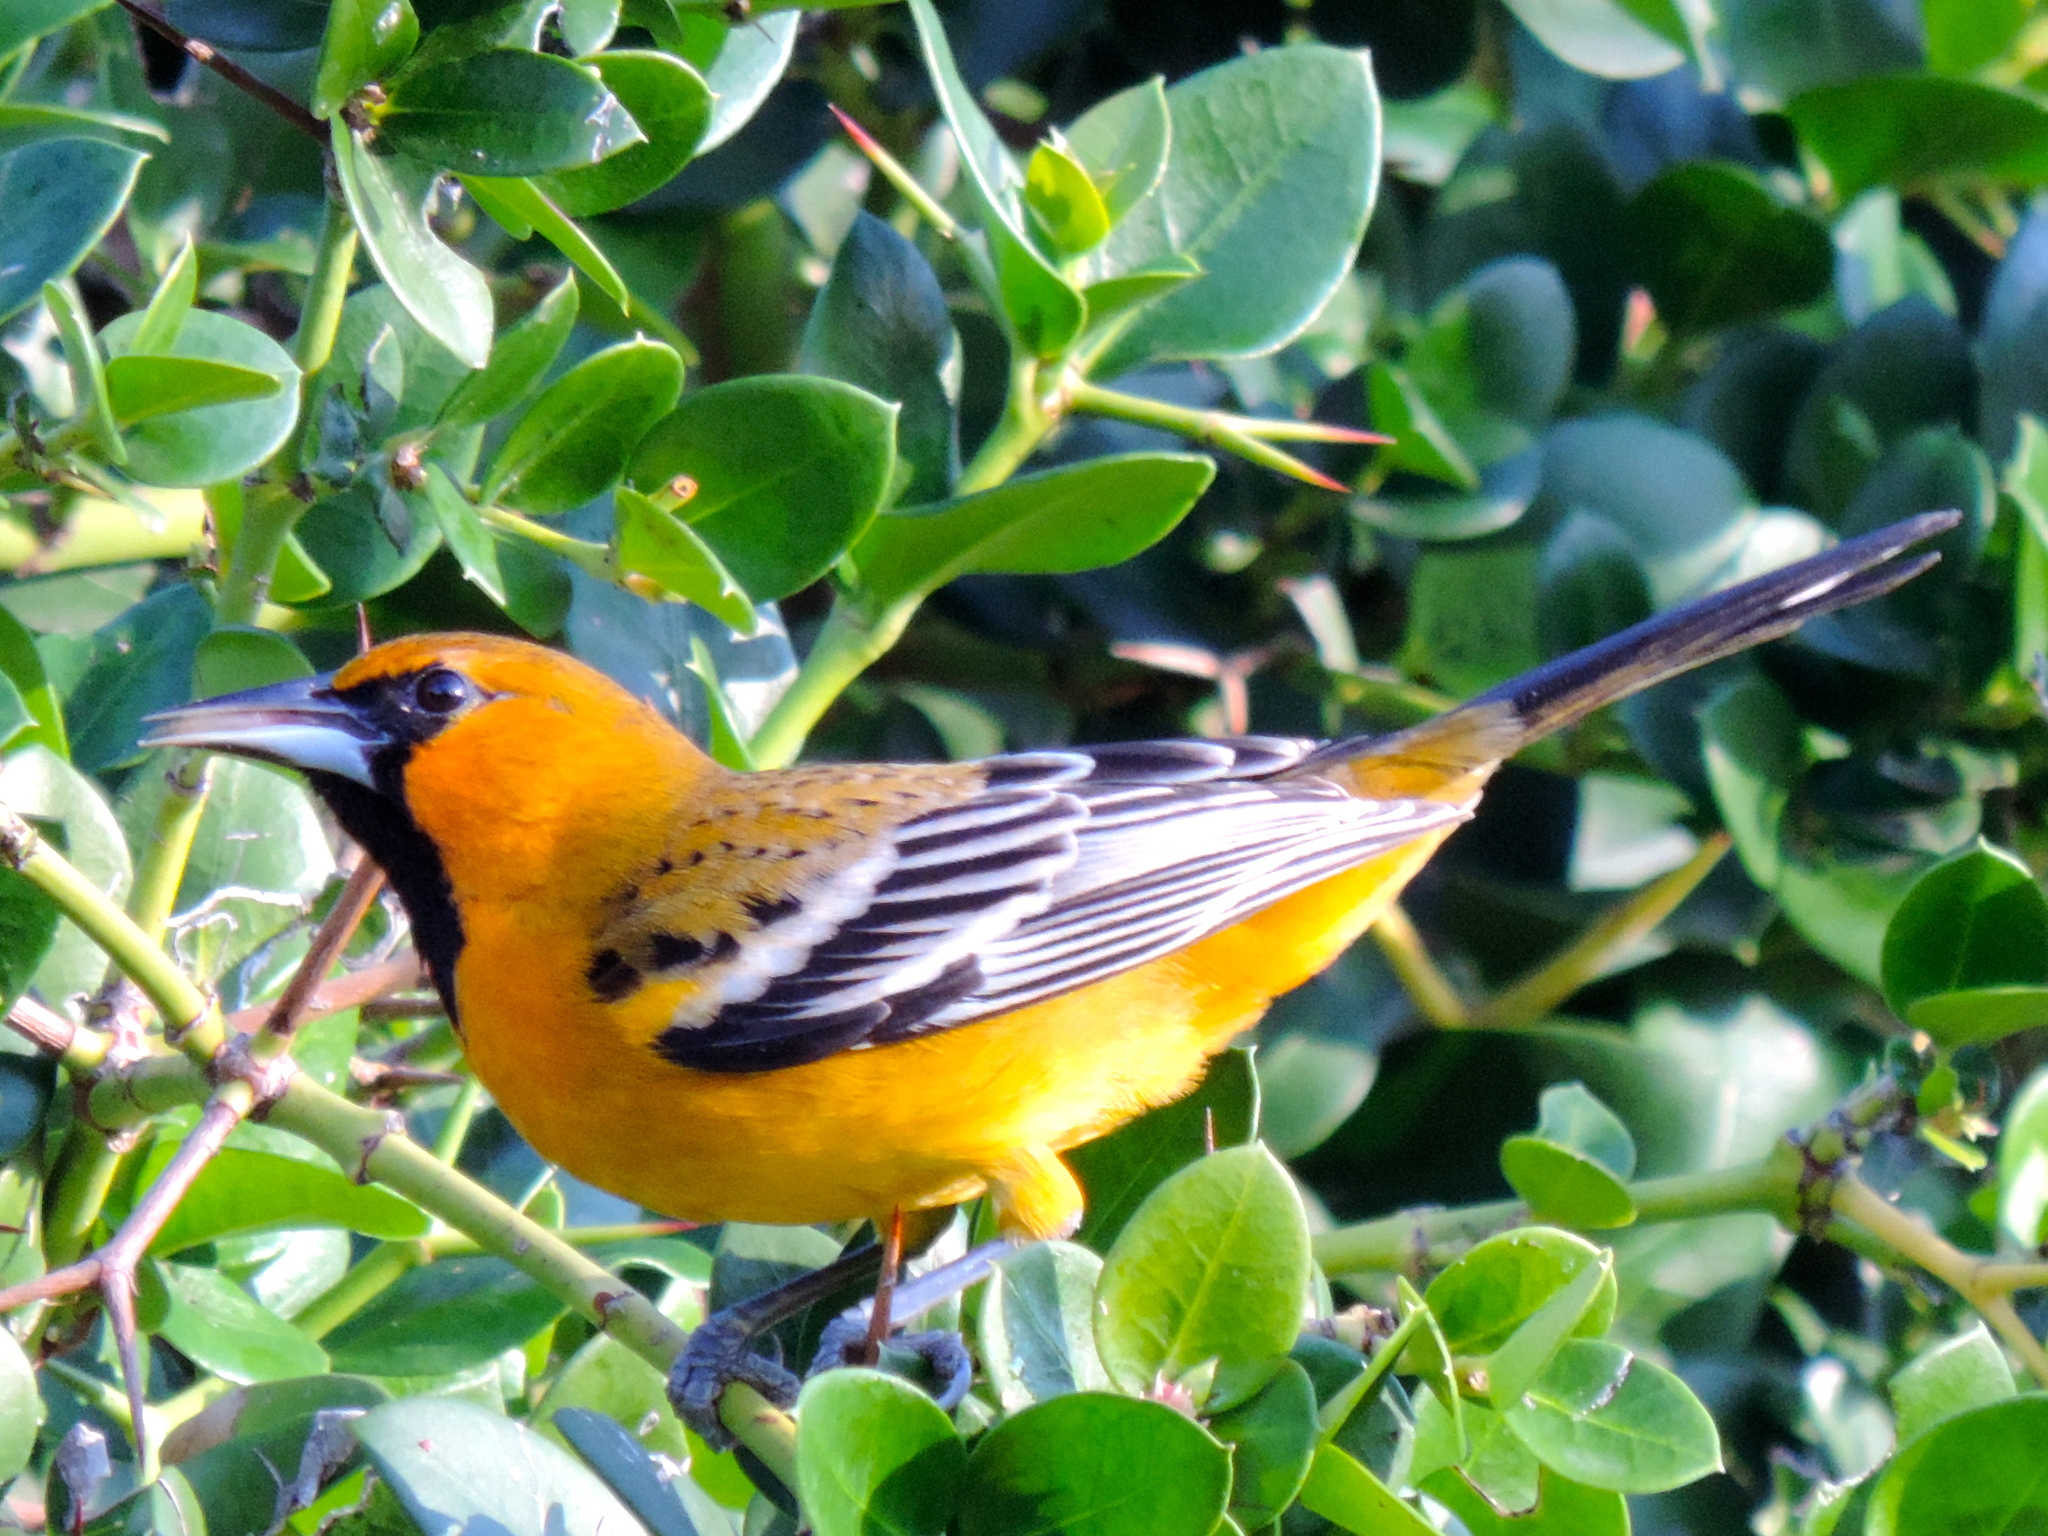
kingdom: Animalia
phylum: Chordata
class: Aves
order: Passeriformes
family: Icteridae
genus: Icterus
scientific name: Icterus pustulatus
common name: Streak-backed oriole
